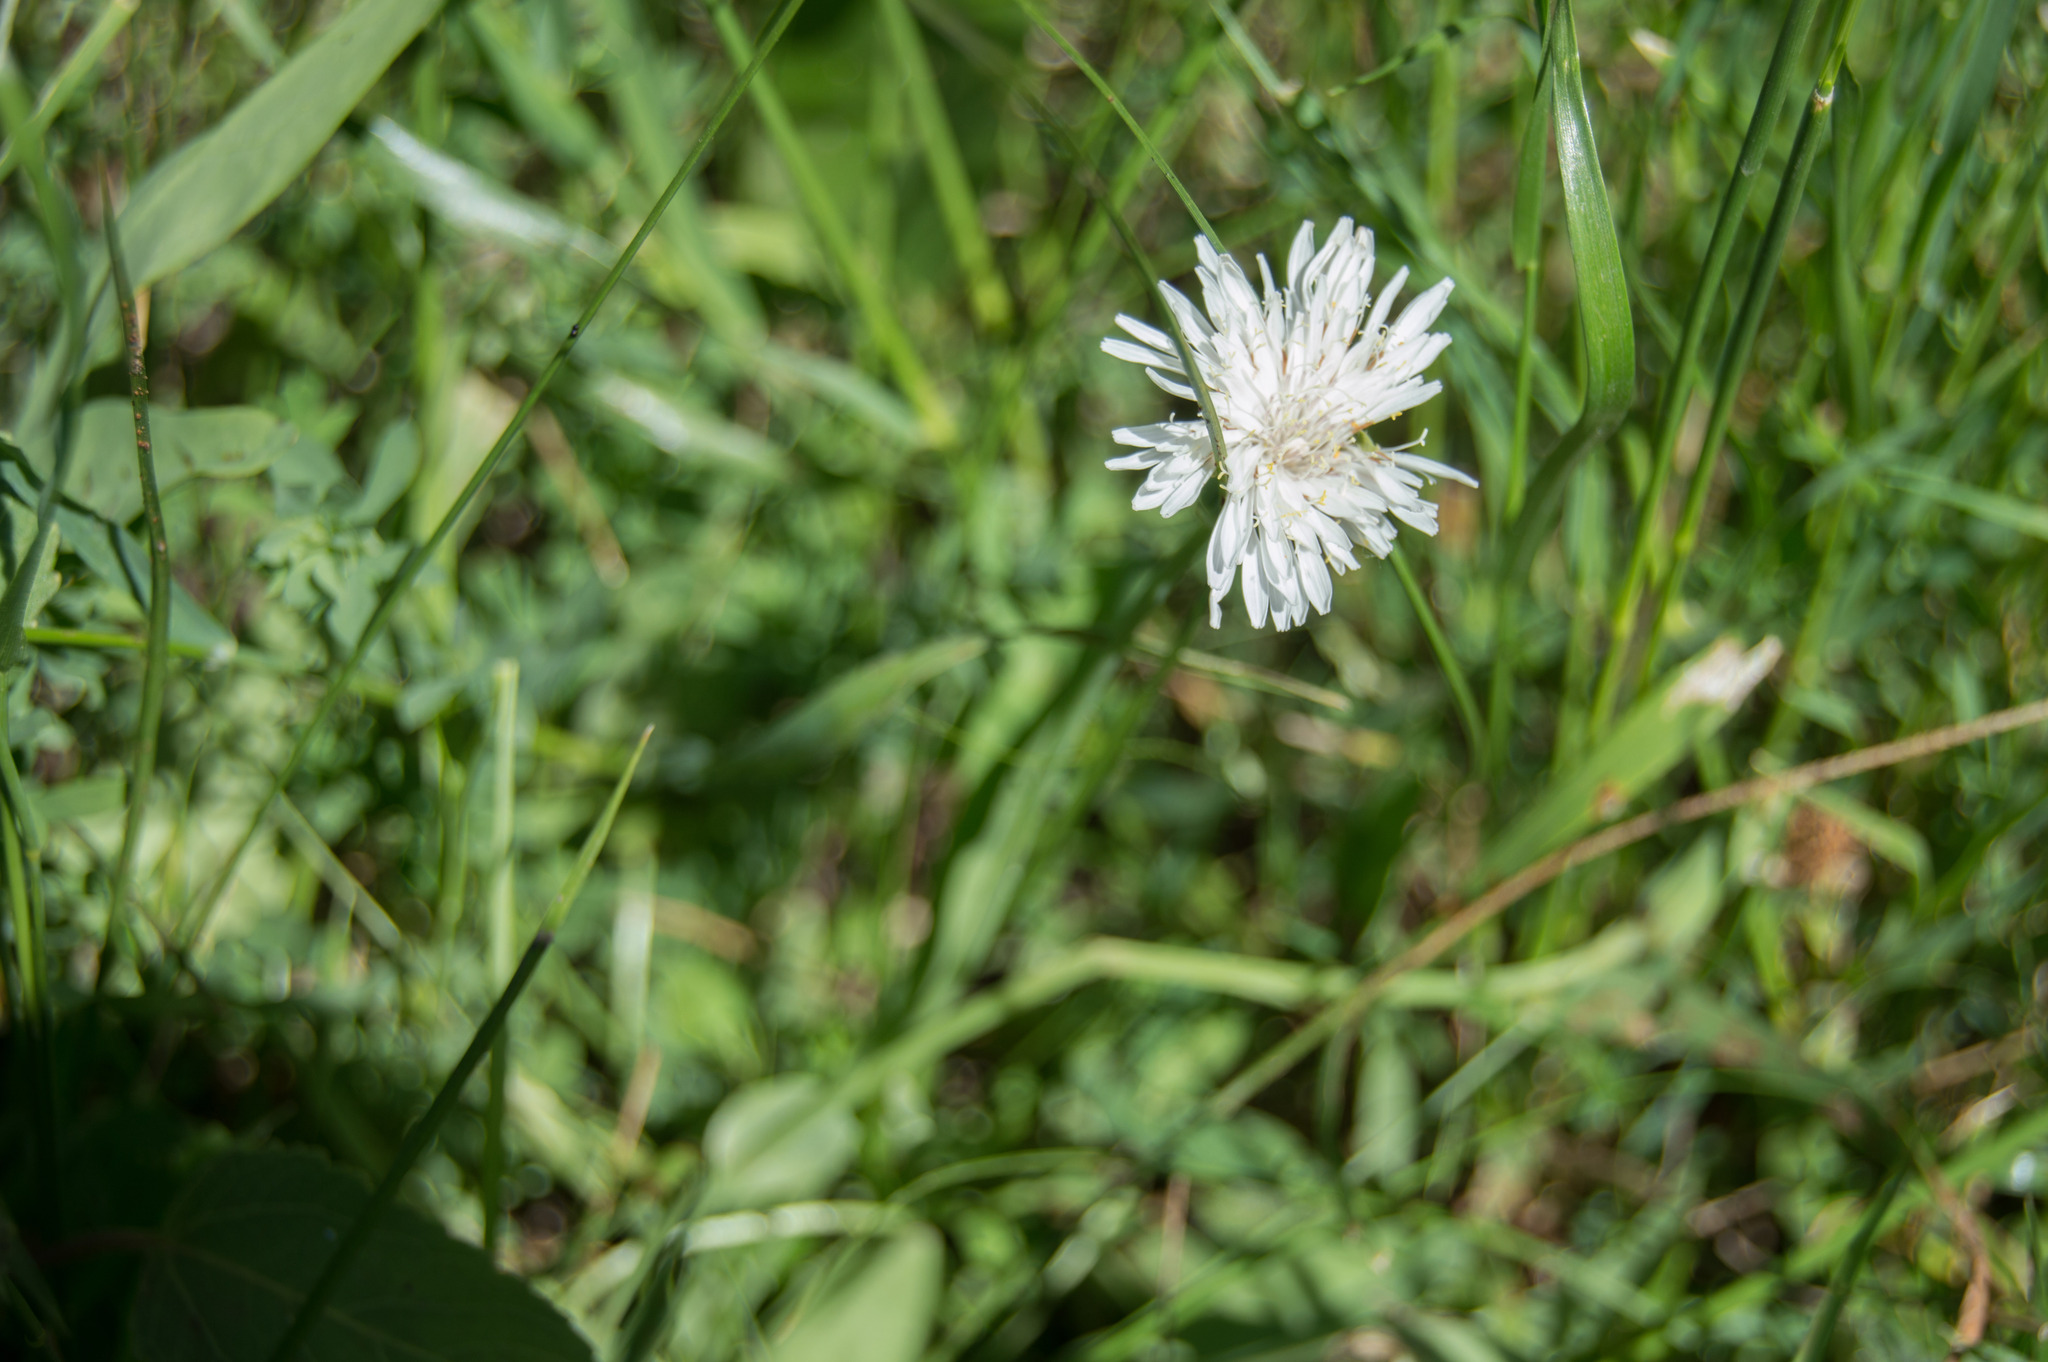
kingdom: Plantae
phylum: Tracheophyta
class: Magnoliopsida
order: Asterales
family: Asteraceae
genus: Picrosia
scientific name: Picrosia longifolia
